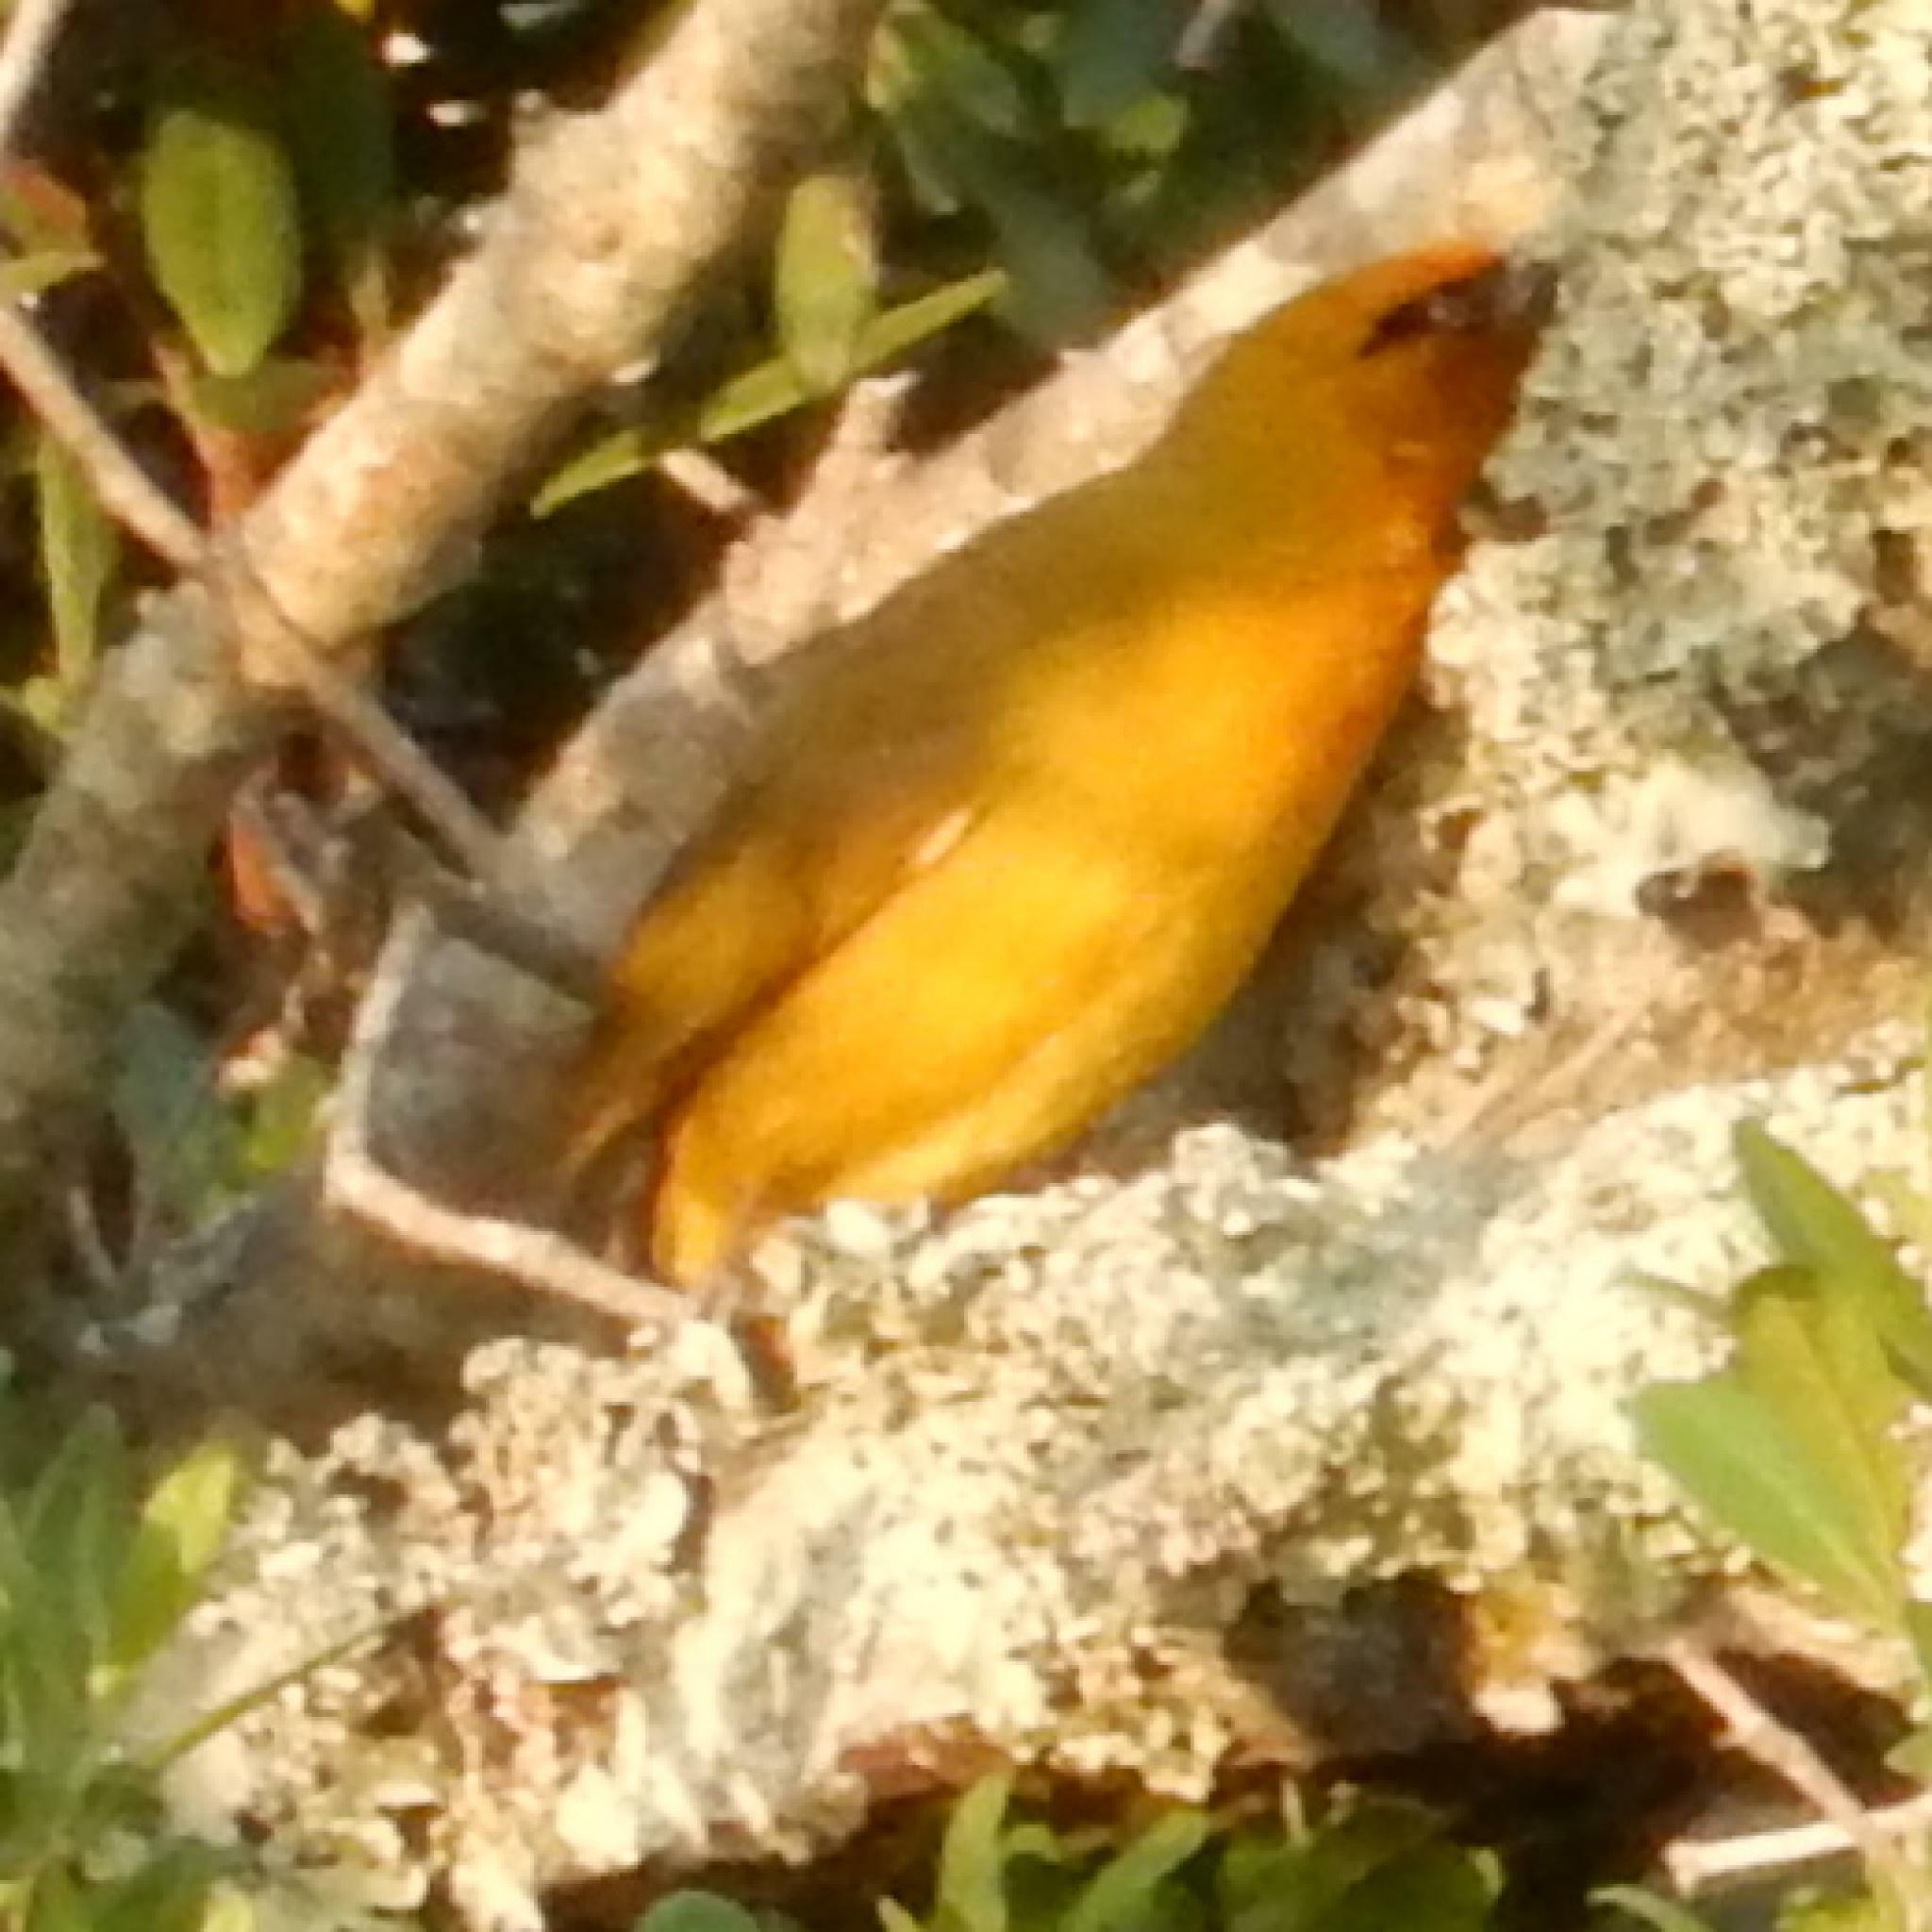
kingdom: Animalia
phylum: Chordata
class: Aves
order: Passeriformes
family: Ploceidae
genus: Ploceus
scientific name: Ploceus ocularis
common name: Spectacled weaver
